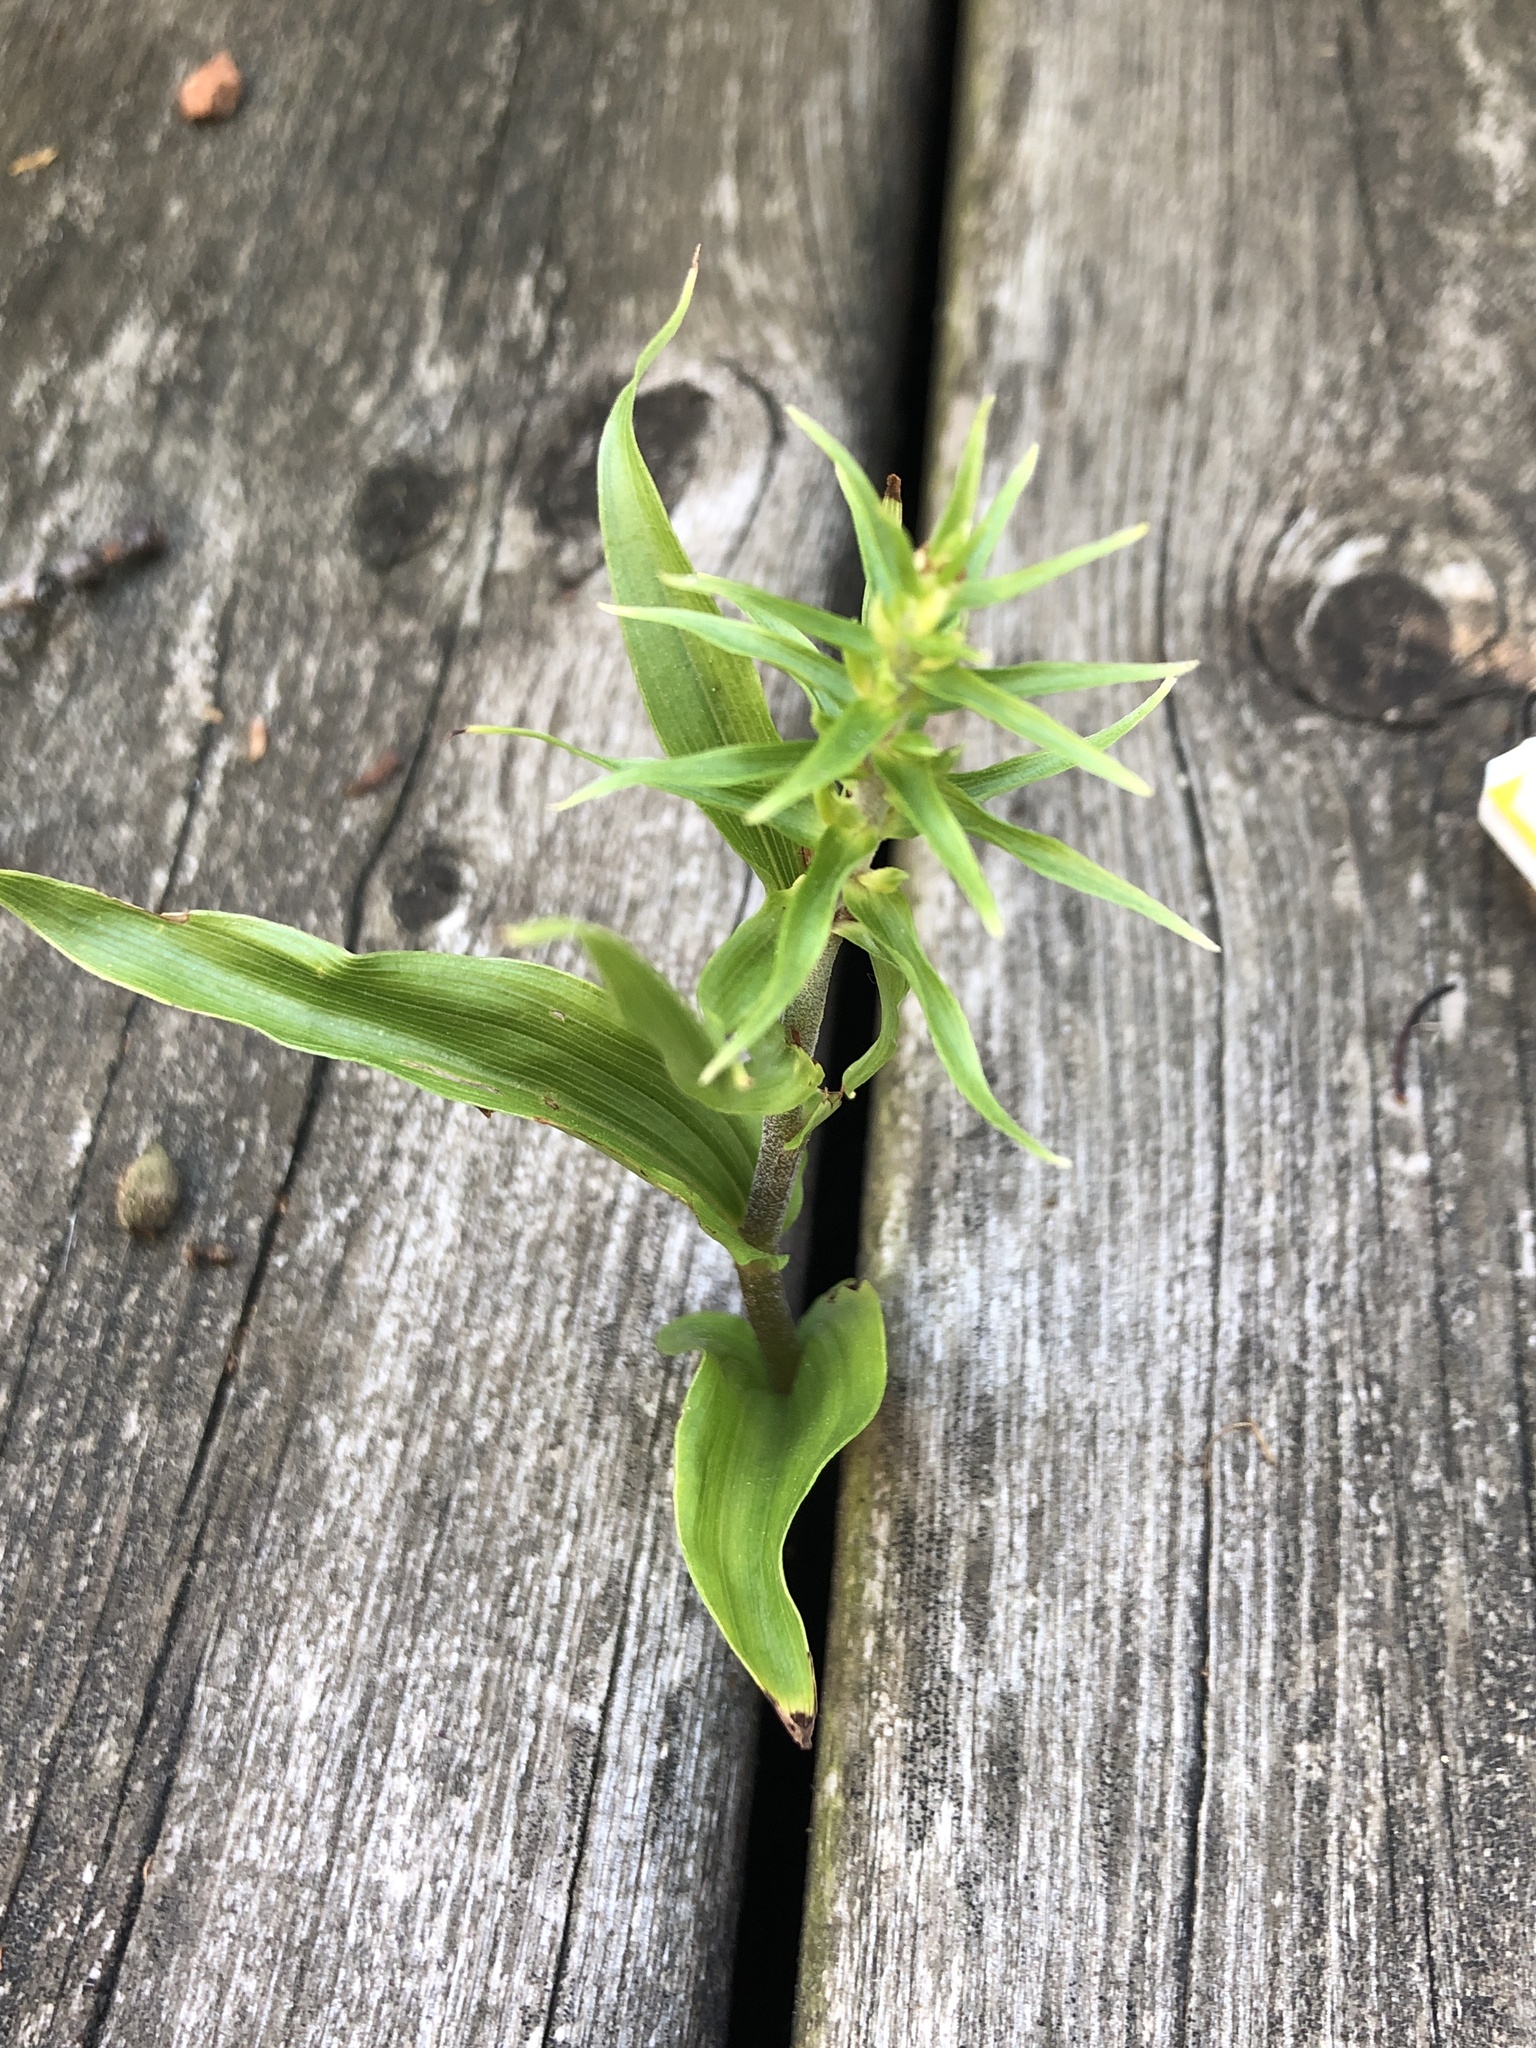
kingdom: Plantae
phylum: Tracheophyta
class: Liliopsida
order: Asparagales
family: Orchidaceae
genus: Epipactis
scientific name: Epipactis helleborine
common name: Broad-leaved helleborine
